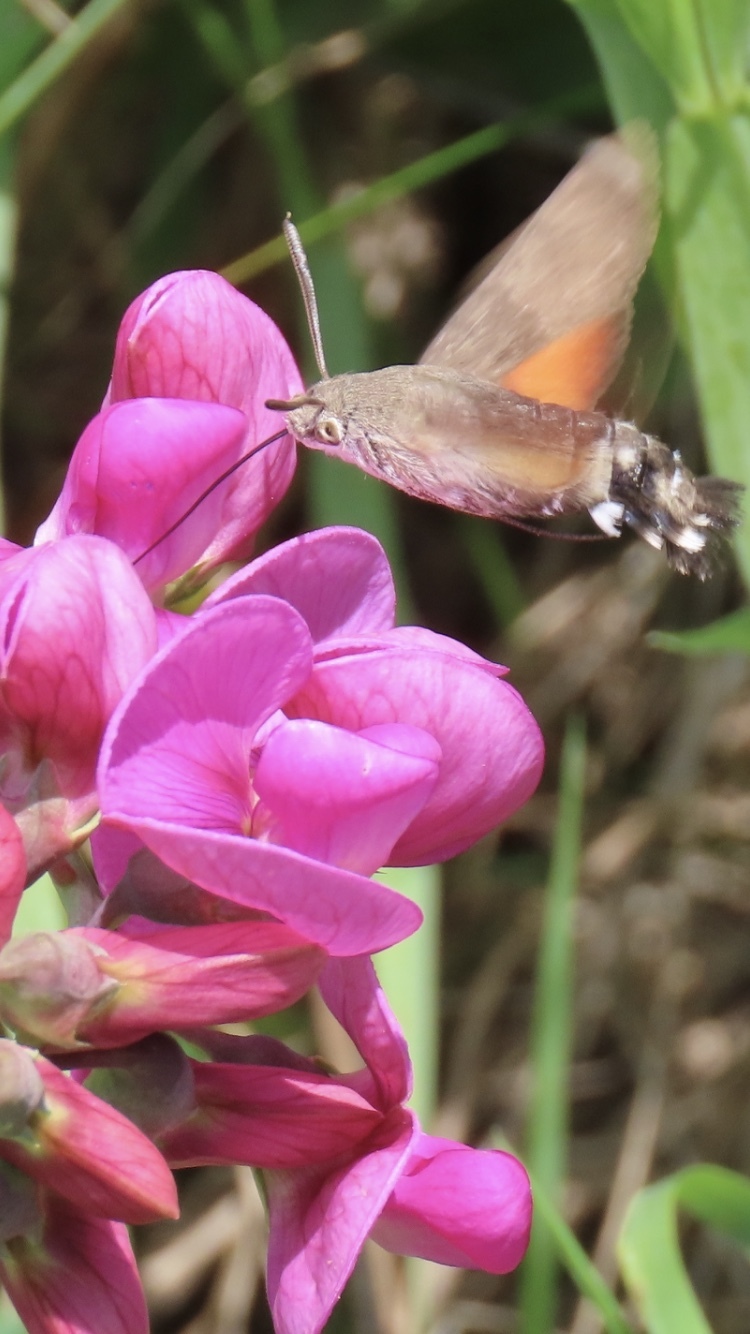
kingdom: Animalia
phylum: Arthropoda
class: Insecta
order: Lepidoptera
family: Sphingidae
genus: Macroglossum
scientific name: Macroglossum stellatarum
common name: Humming-bird hawk-moth
